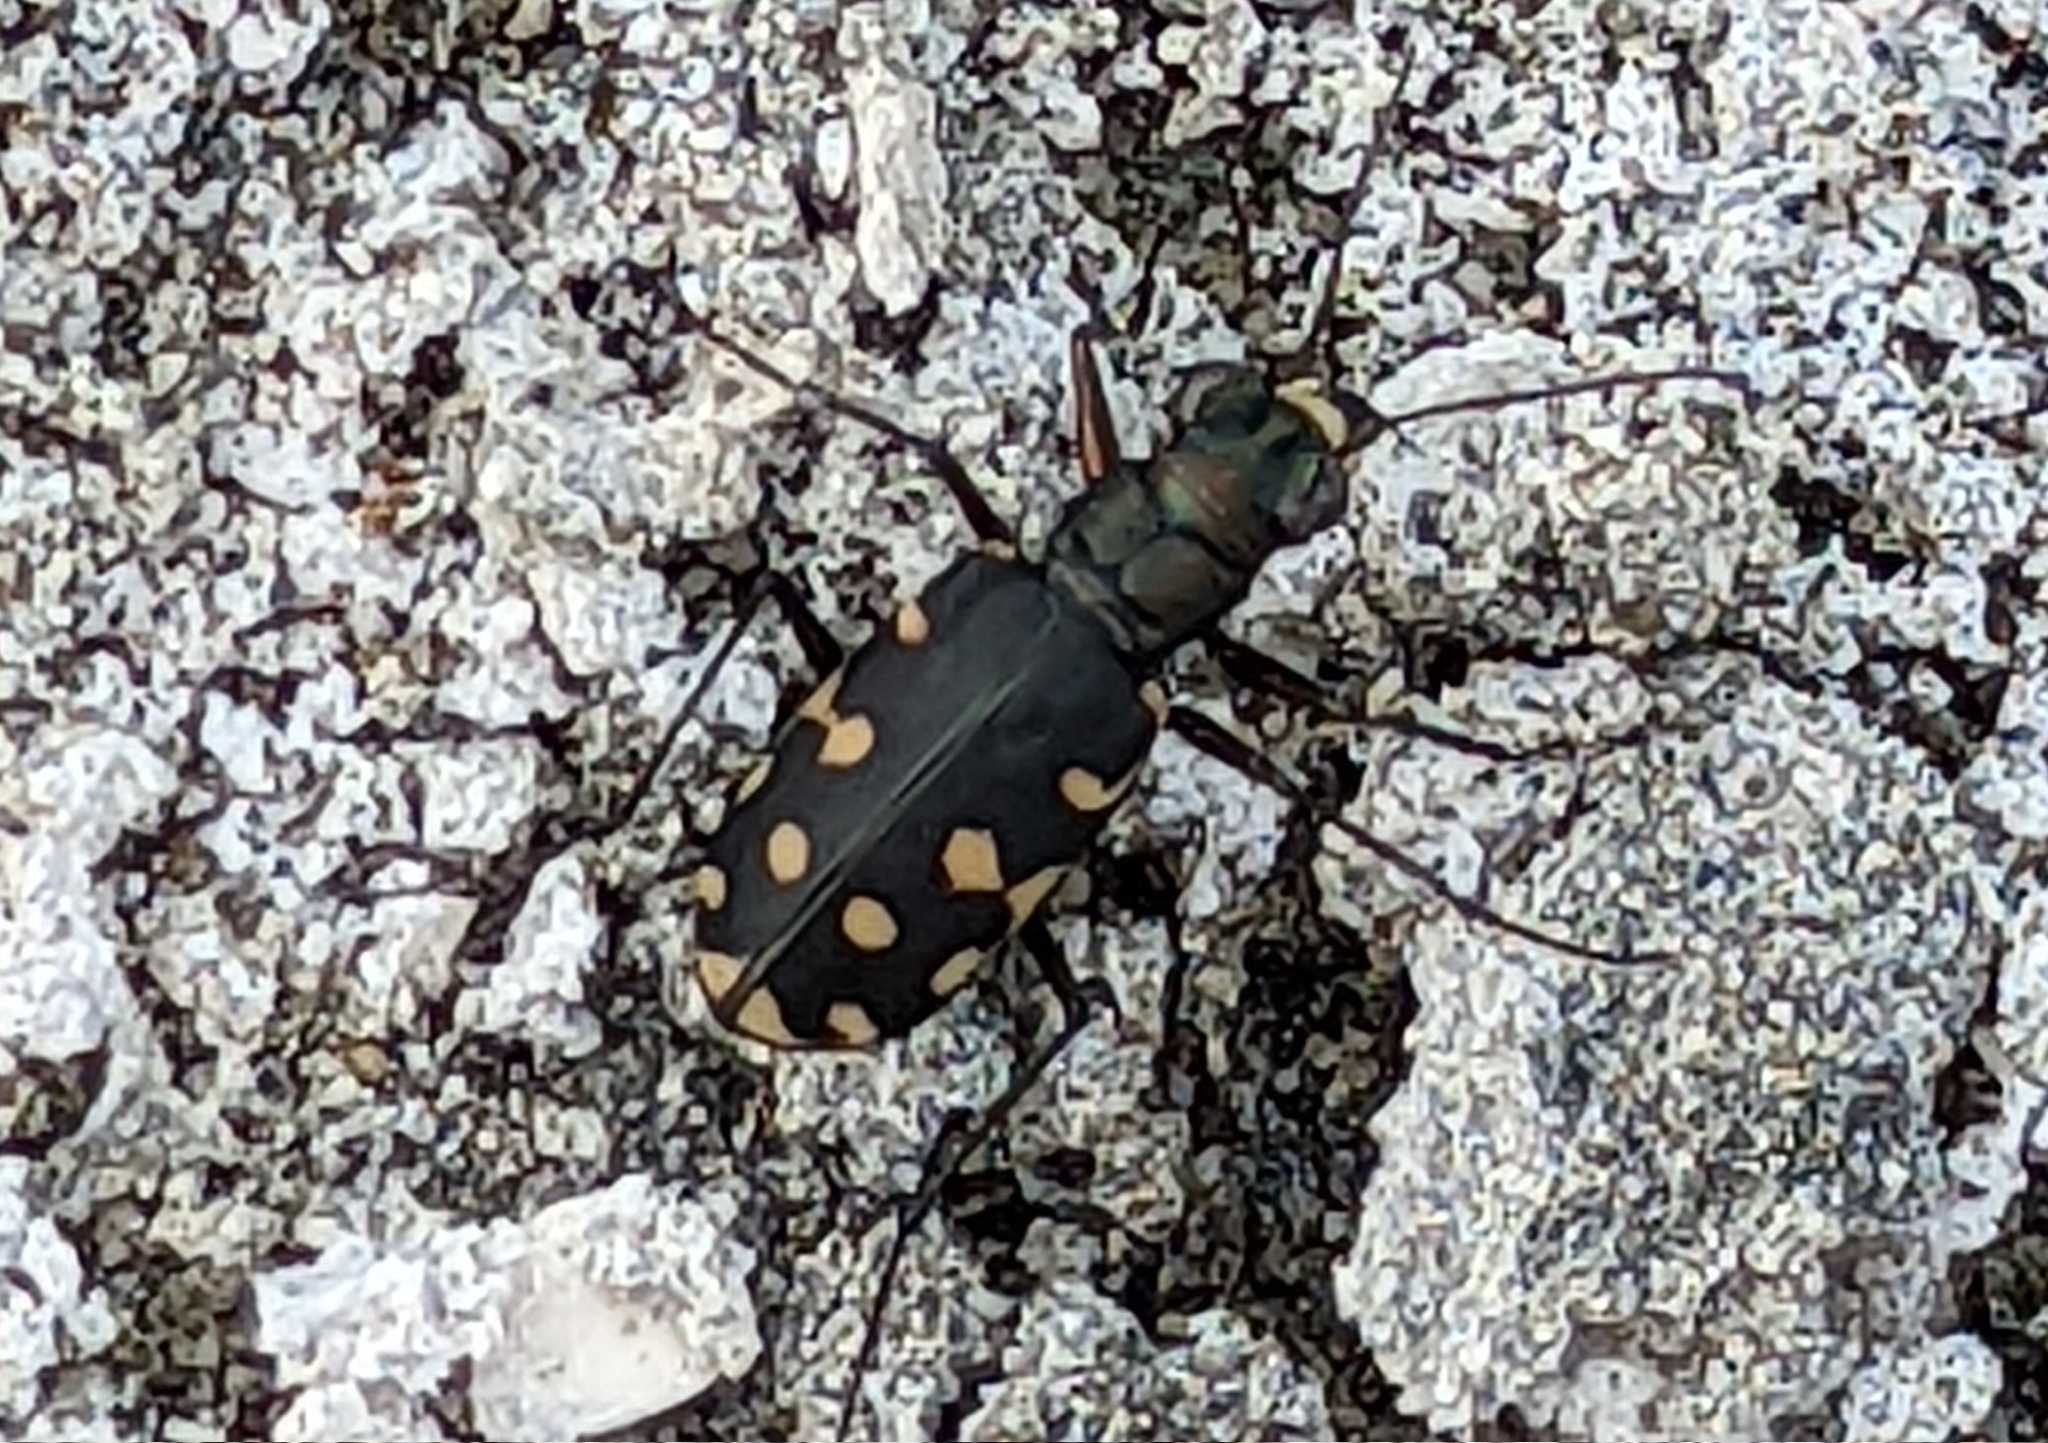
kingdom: Animalia
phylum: Arthropoda
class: Insecta
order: Coleoptera
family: Carabidae
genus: Cicindela
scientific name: Cicindela littoralis
